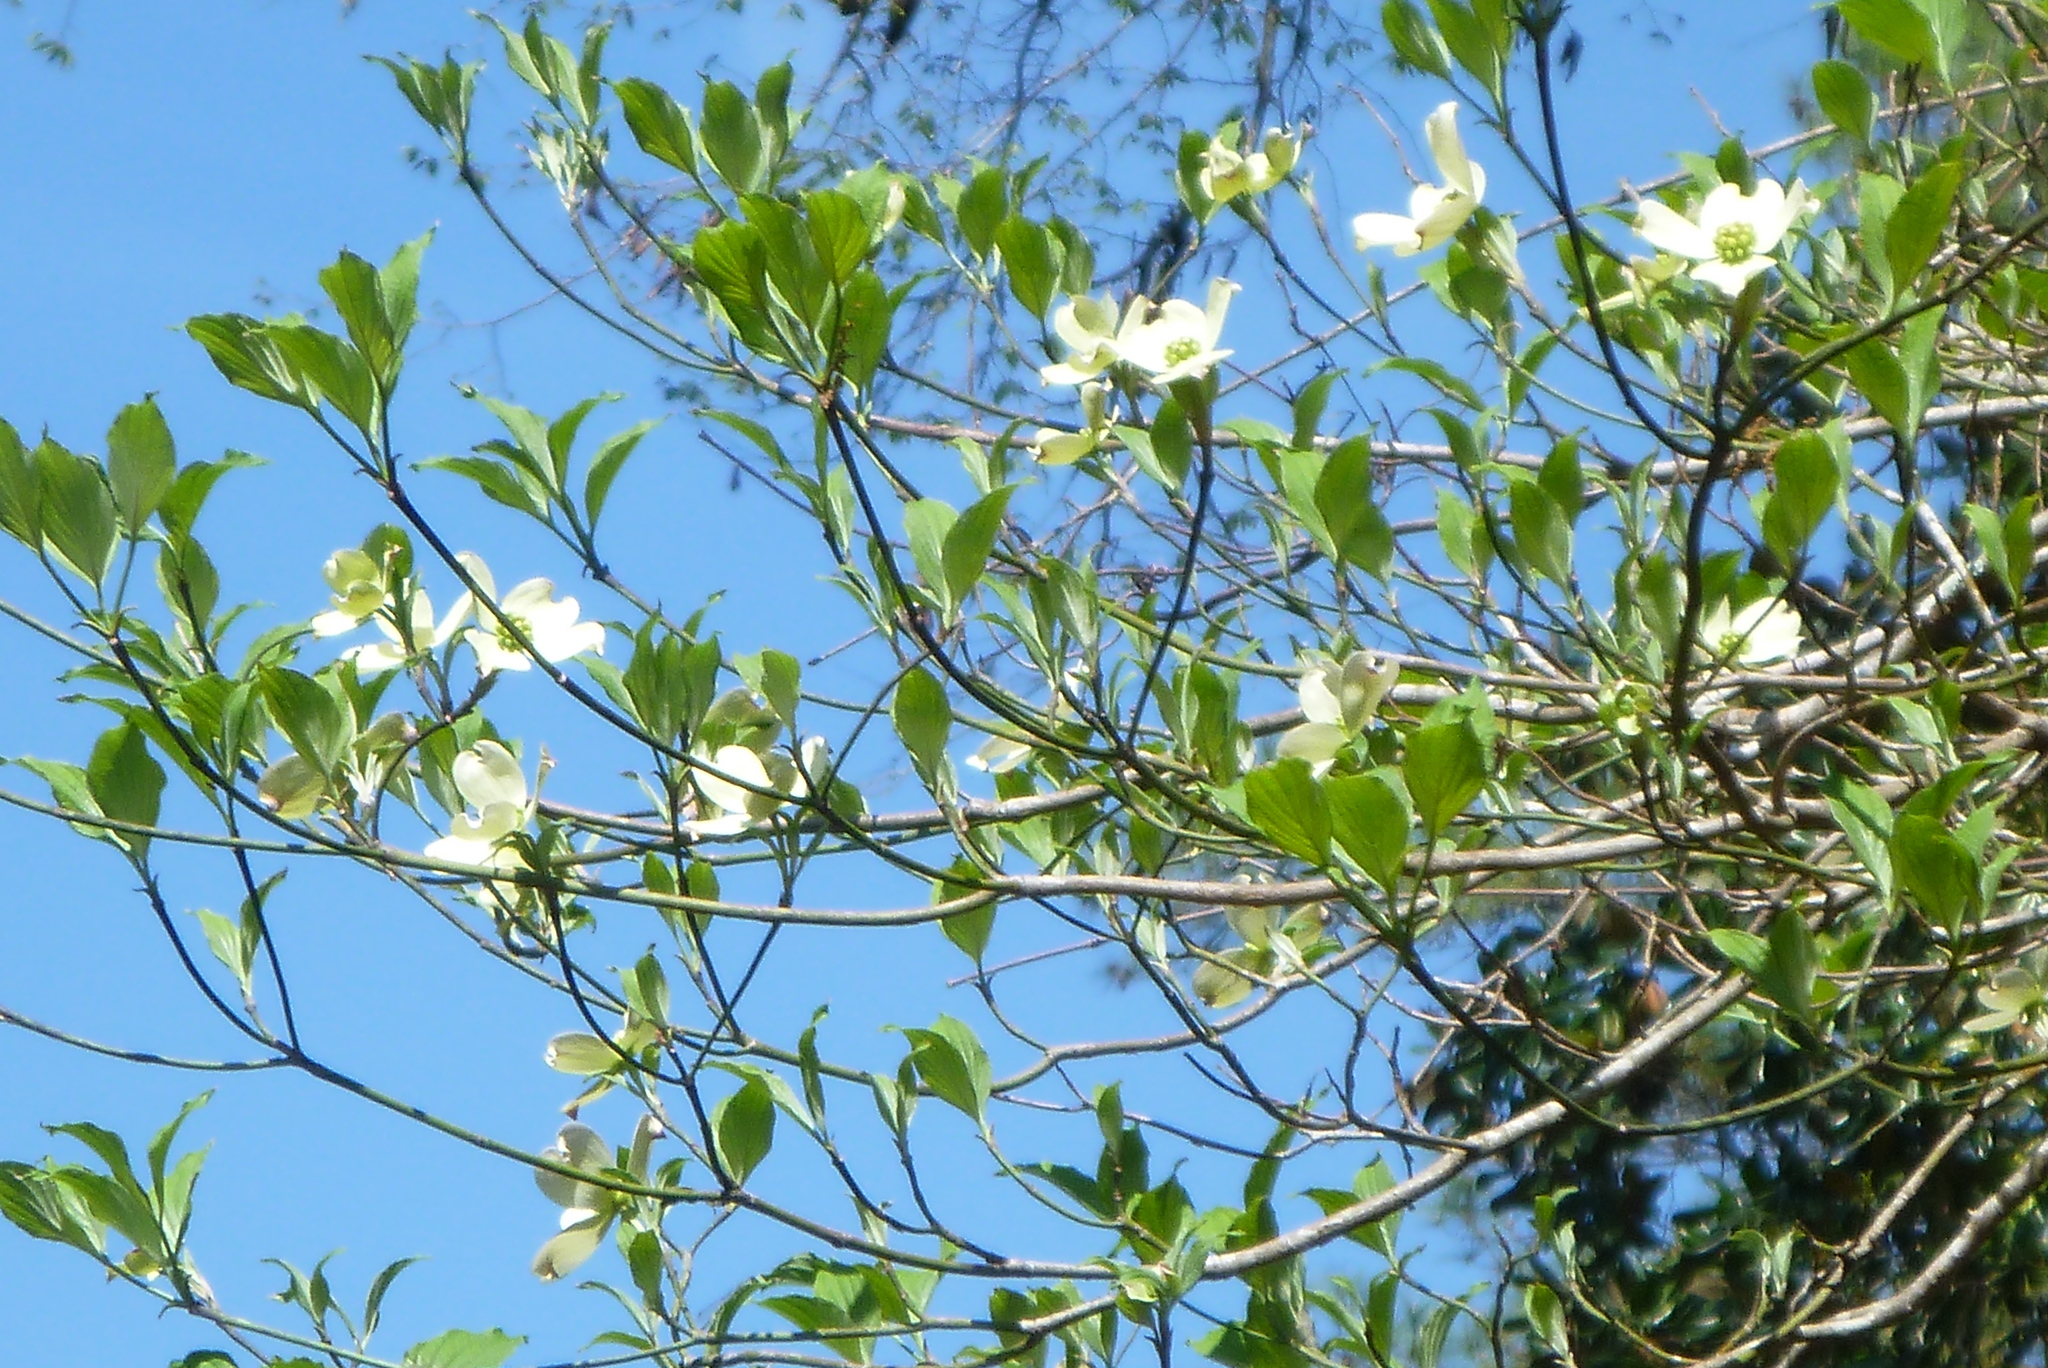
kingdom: Plantae
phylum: Tracheophyta
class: Magnoliopsida
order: Cornales
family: Cornaceae
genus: Cornus
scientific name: Cornus florida
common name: Flowering dogwood
